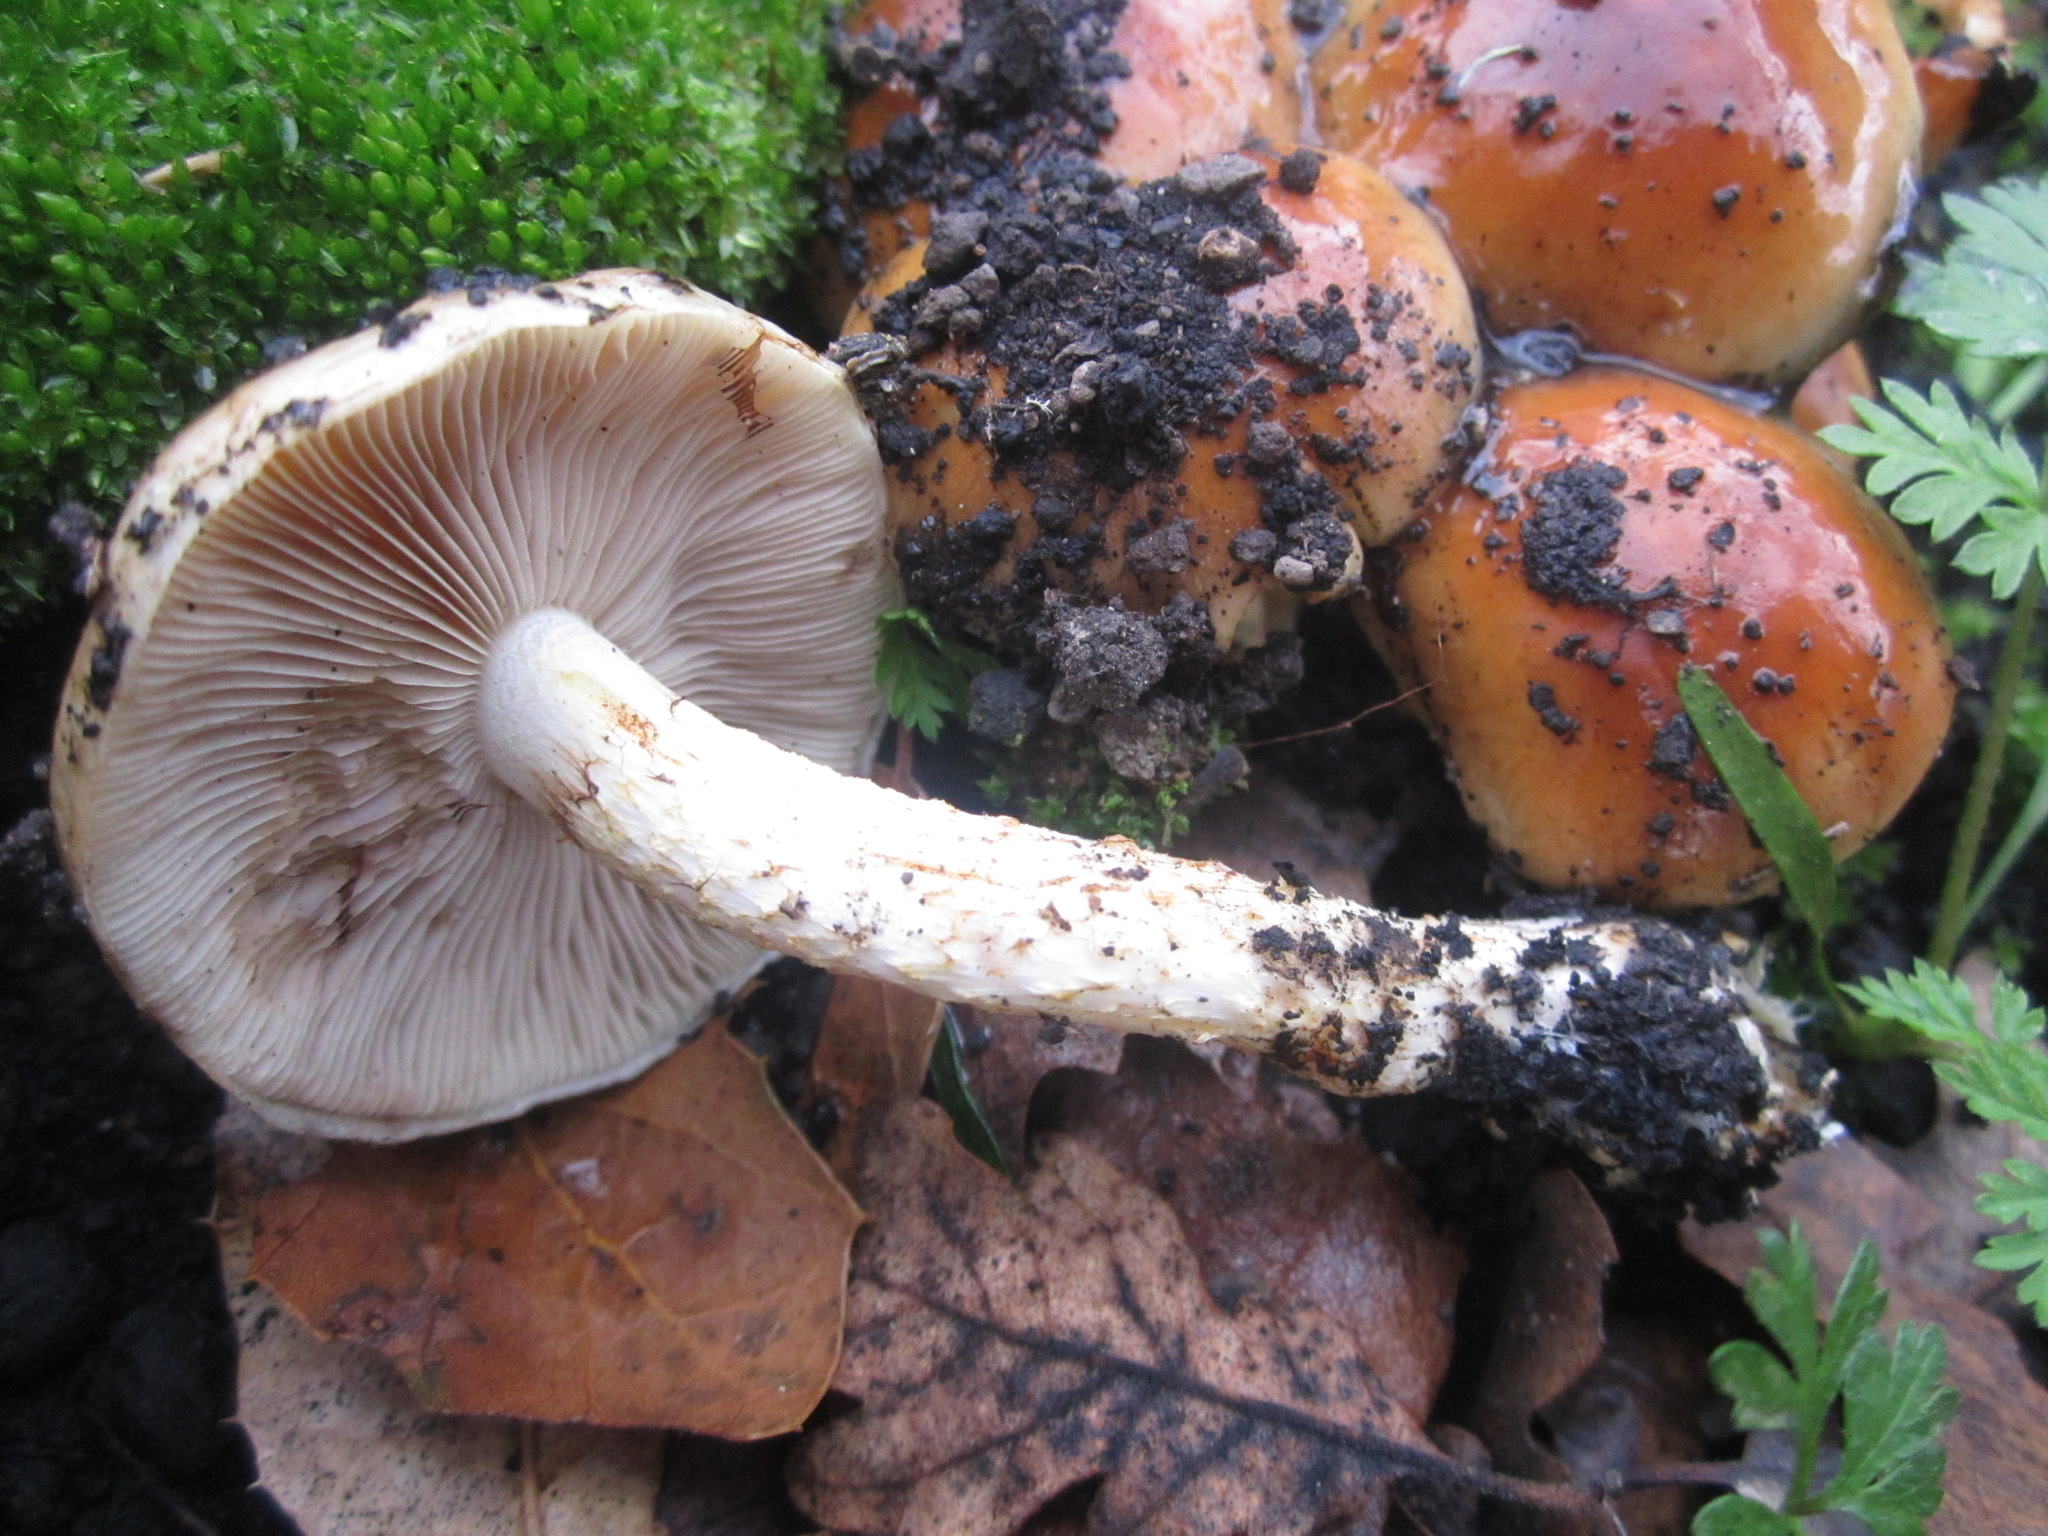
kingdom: Fungi
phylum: Basidiomycota
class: Agaricomycetes
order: Agaricales
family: Strophariaceae
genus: Pholiota
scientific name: Pholiota carbonaria
